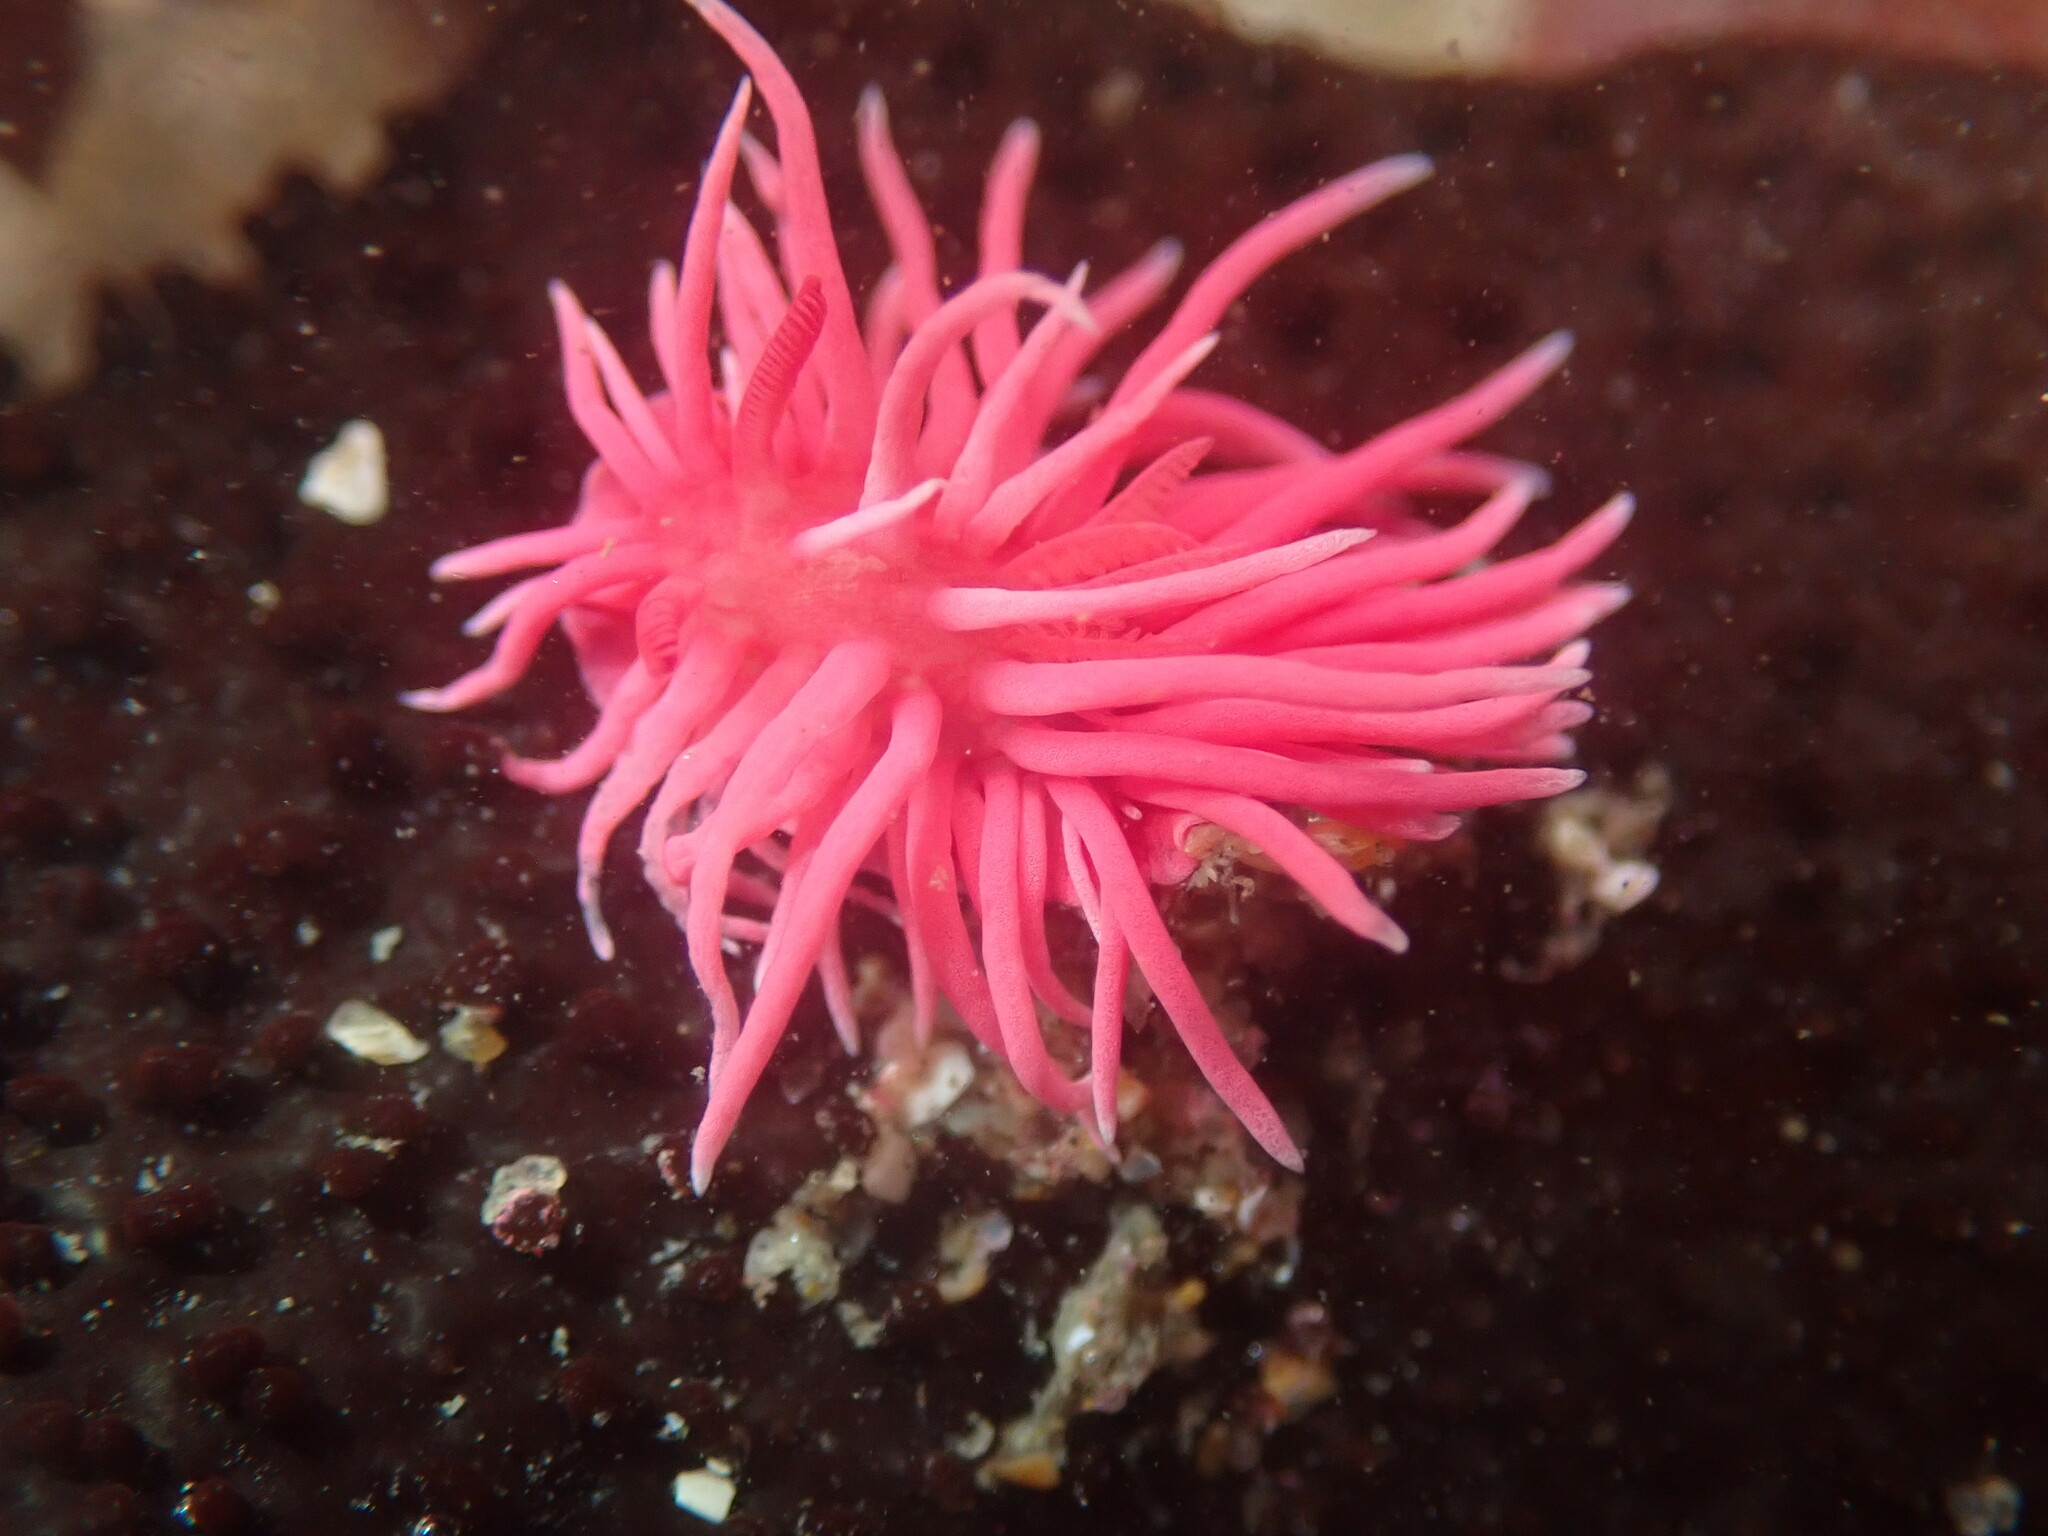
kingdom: Animalia
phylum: Mollusca
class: Gastropoda
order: Nudibranchia
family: Goniodorididae
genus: Okenia
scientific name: Okenia
